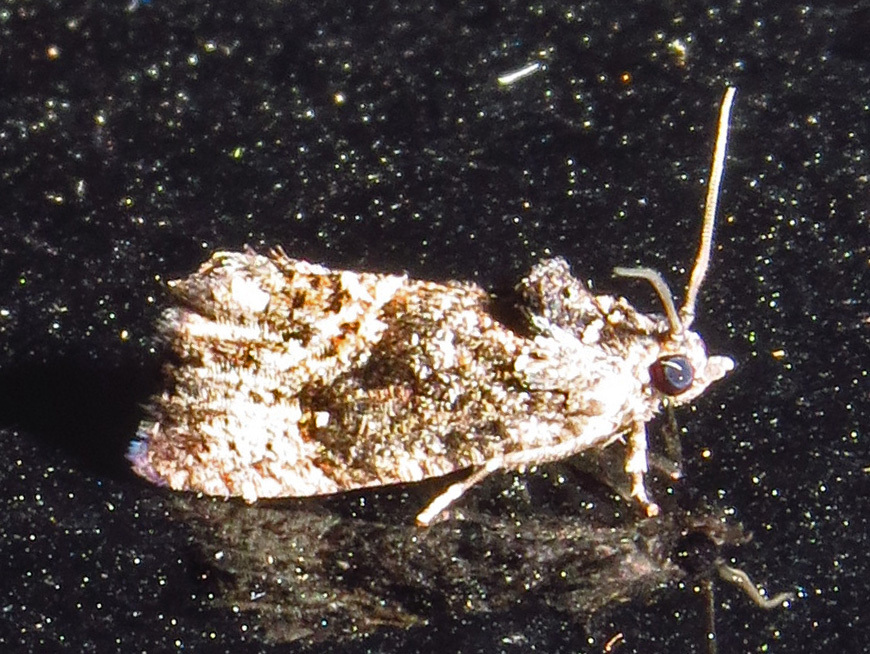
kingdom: Animalia
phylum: Arthropoda
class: Insecta
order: Lepidoptera
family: Tortricidae
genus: Gymnandrosoma
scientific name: Gymnandrosoma punctidiscanum
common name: Dotted ecdytolopha moth
